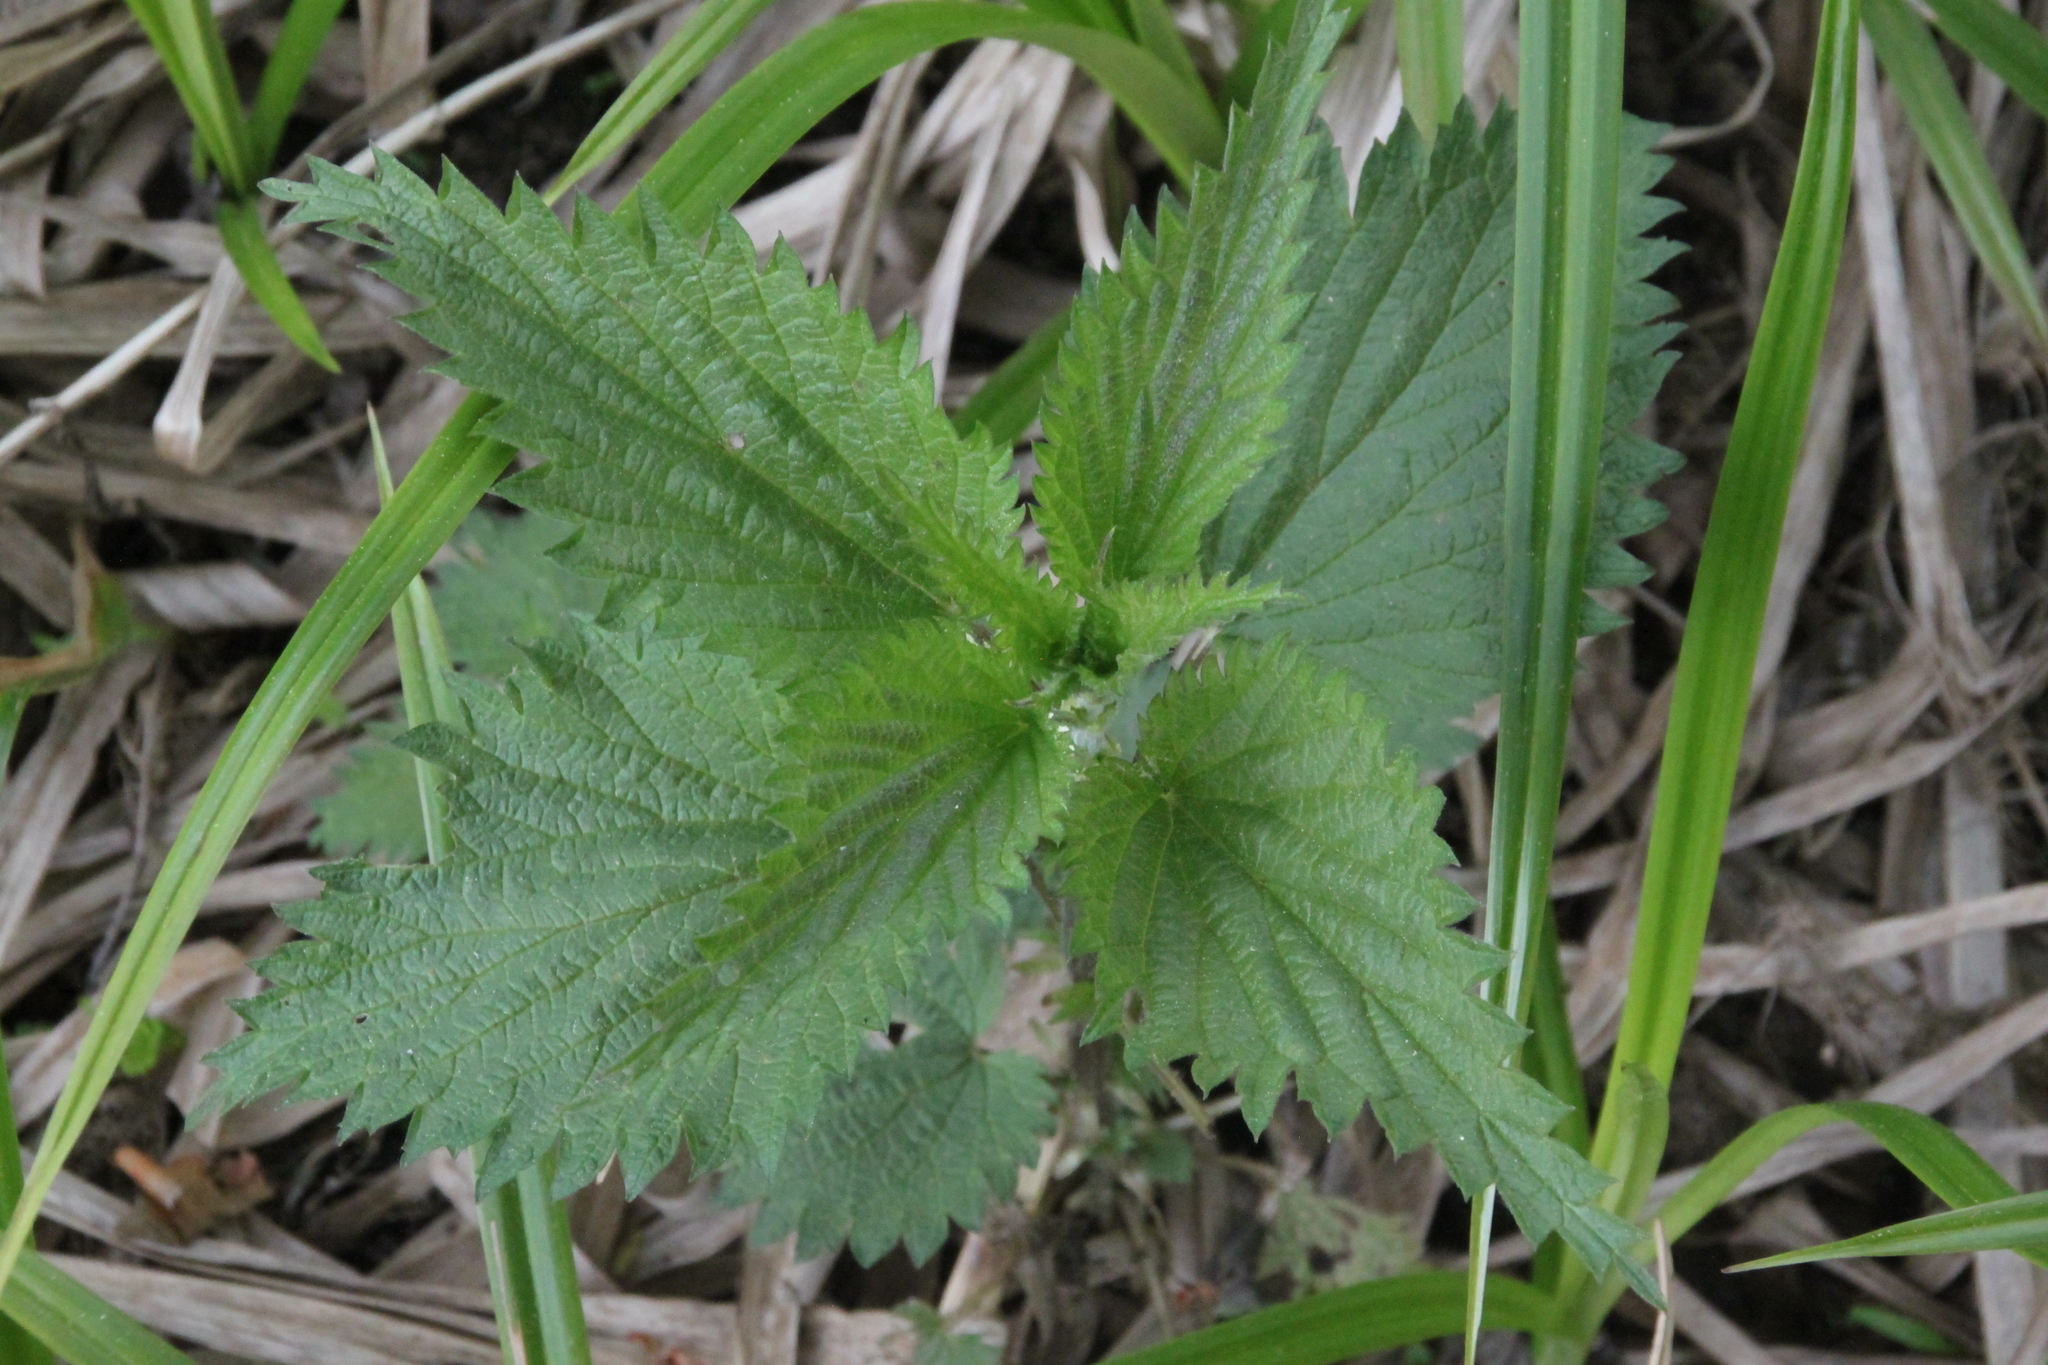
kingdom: Plantae
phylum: Tracheophyta
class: Magnoliopsida
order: Rosales
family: Urticaceae
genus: Urtica
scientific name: Urtica dioica
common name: Common nettle
